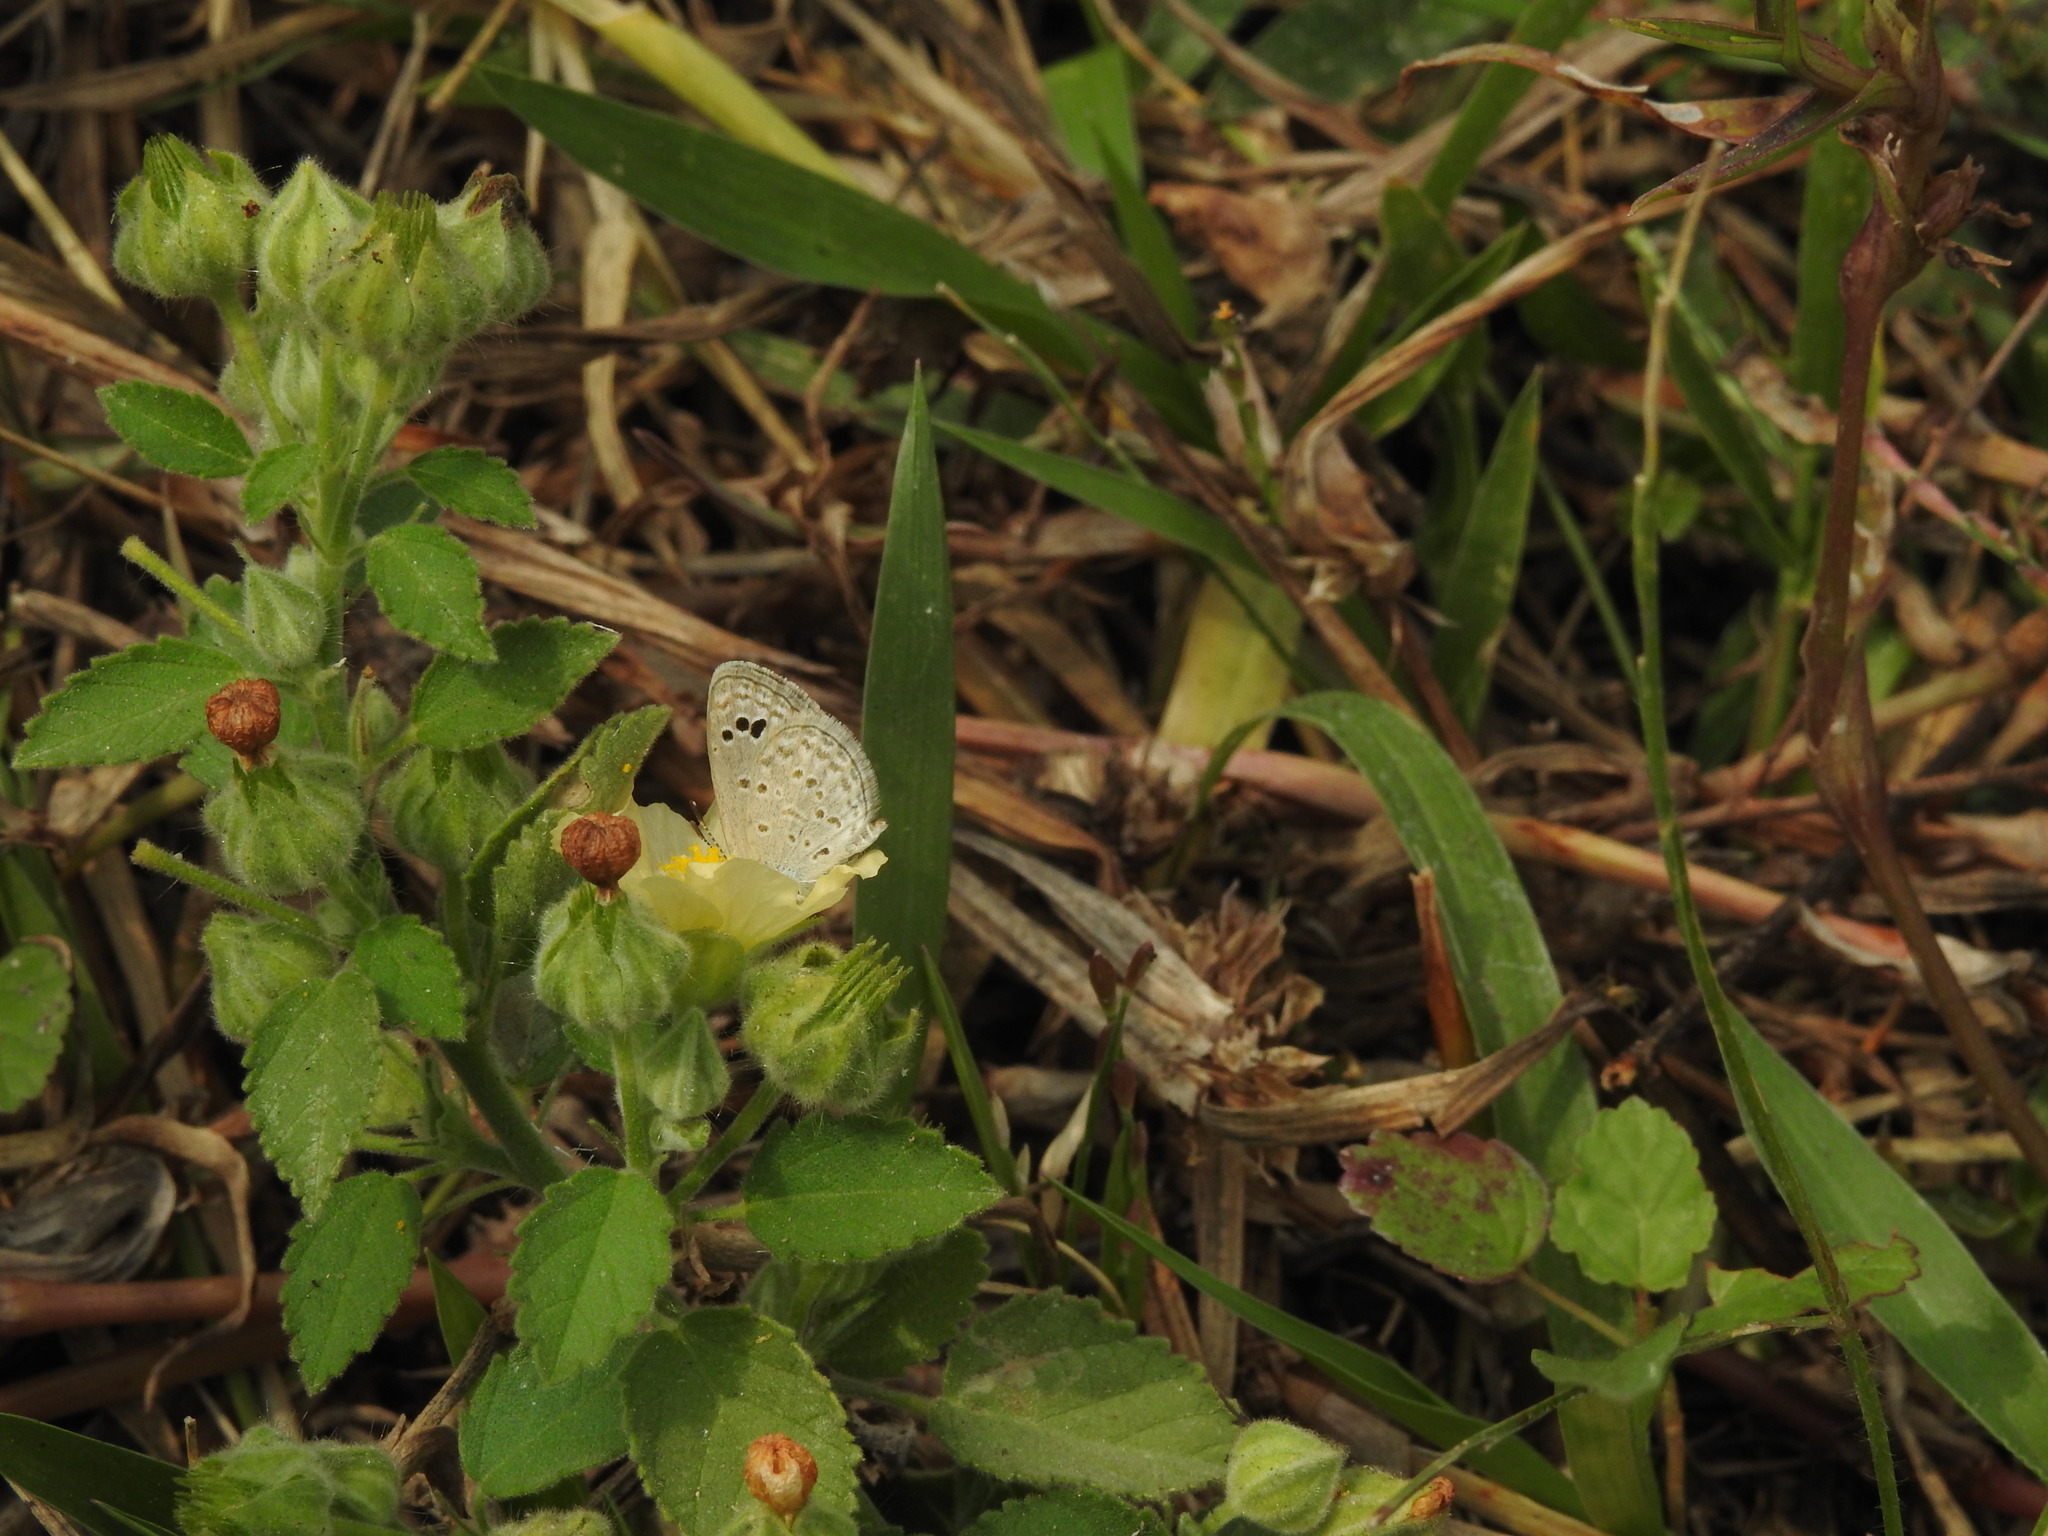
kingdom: Animalia
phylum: Arthropoda
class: Insecta
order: Lepidoptera
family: Lycaenidae
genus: Zizina
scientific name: Zizina otis
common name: Lesser grass blue
